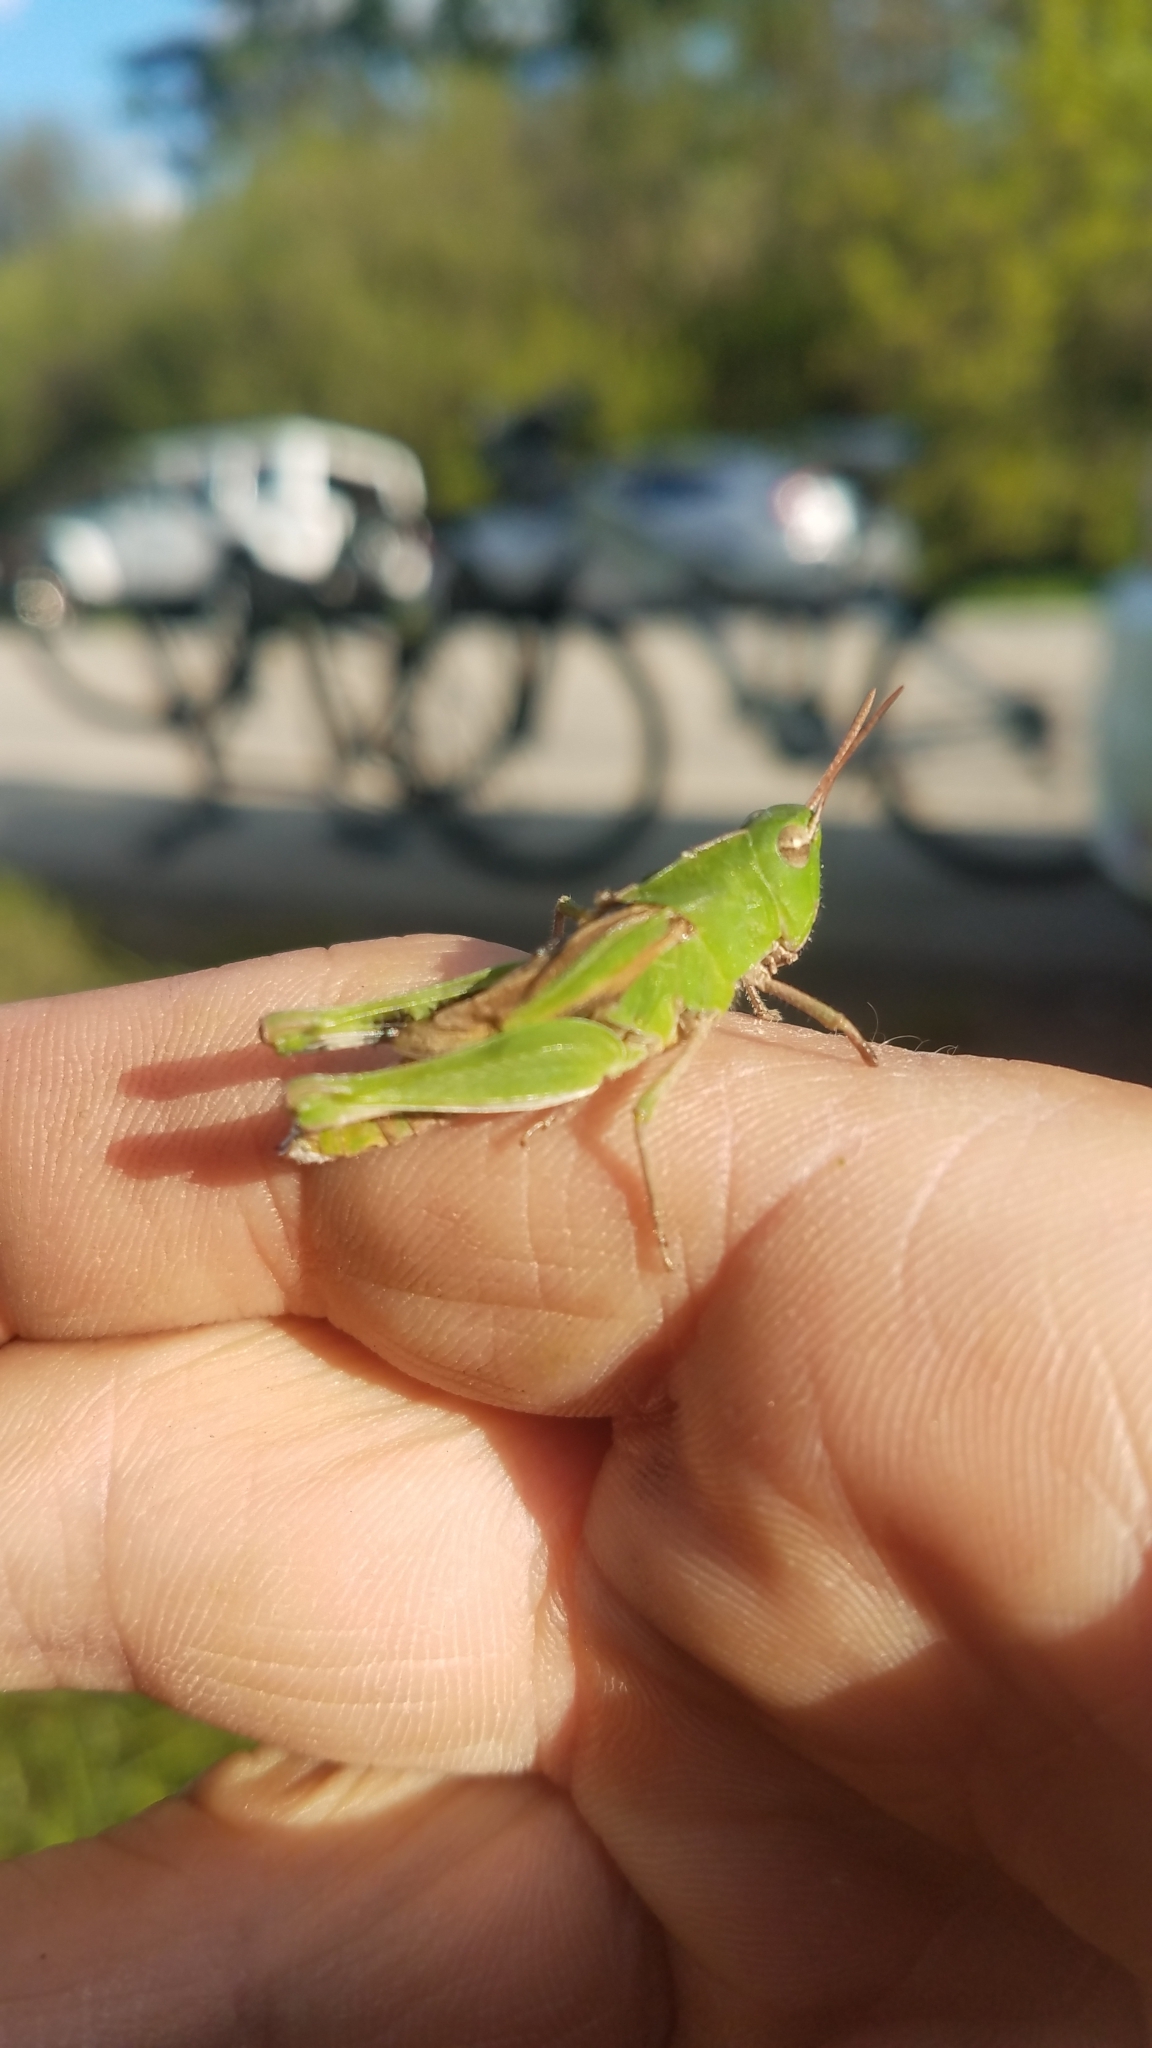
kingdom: Animalia
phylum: Arthropoda
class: Insecta
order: Orthoptera
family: Acrididae
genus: Chortophaga
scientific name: Chortophaga viridifasciata
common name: Green-striped grasshopper
